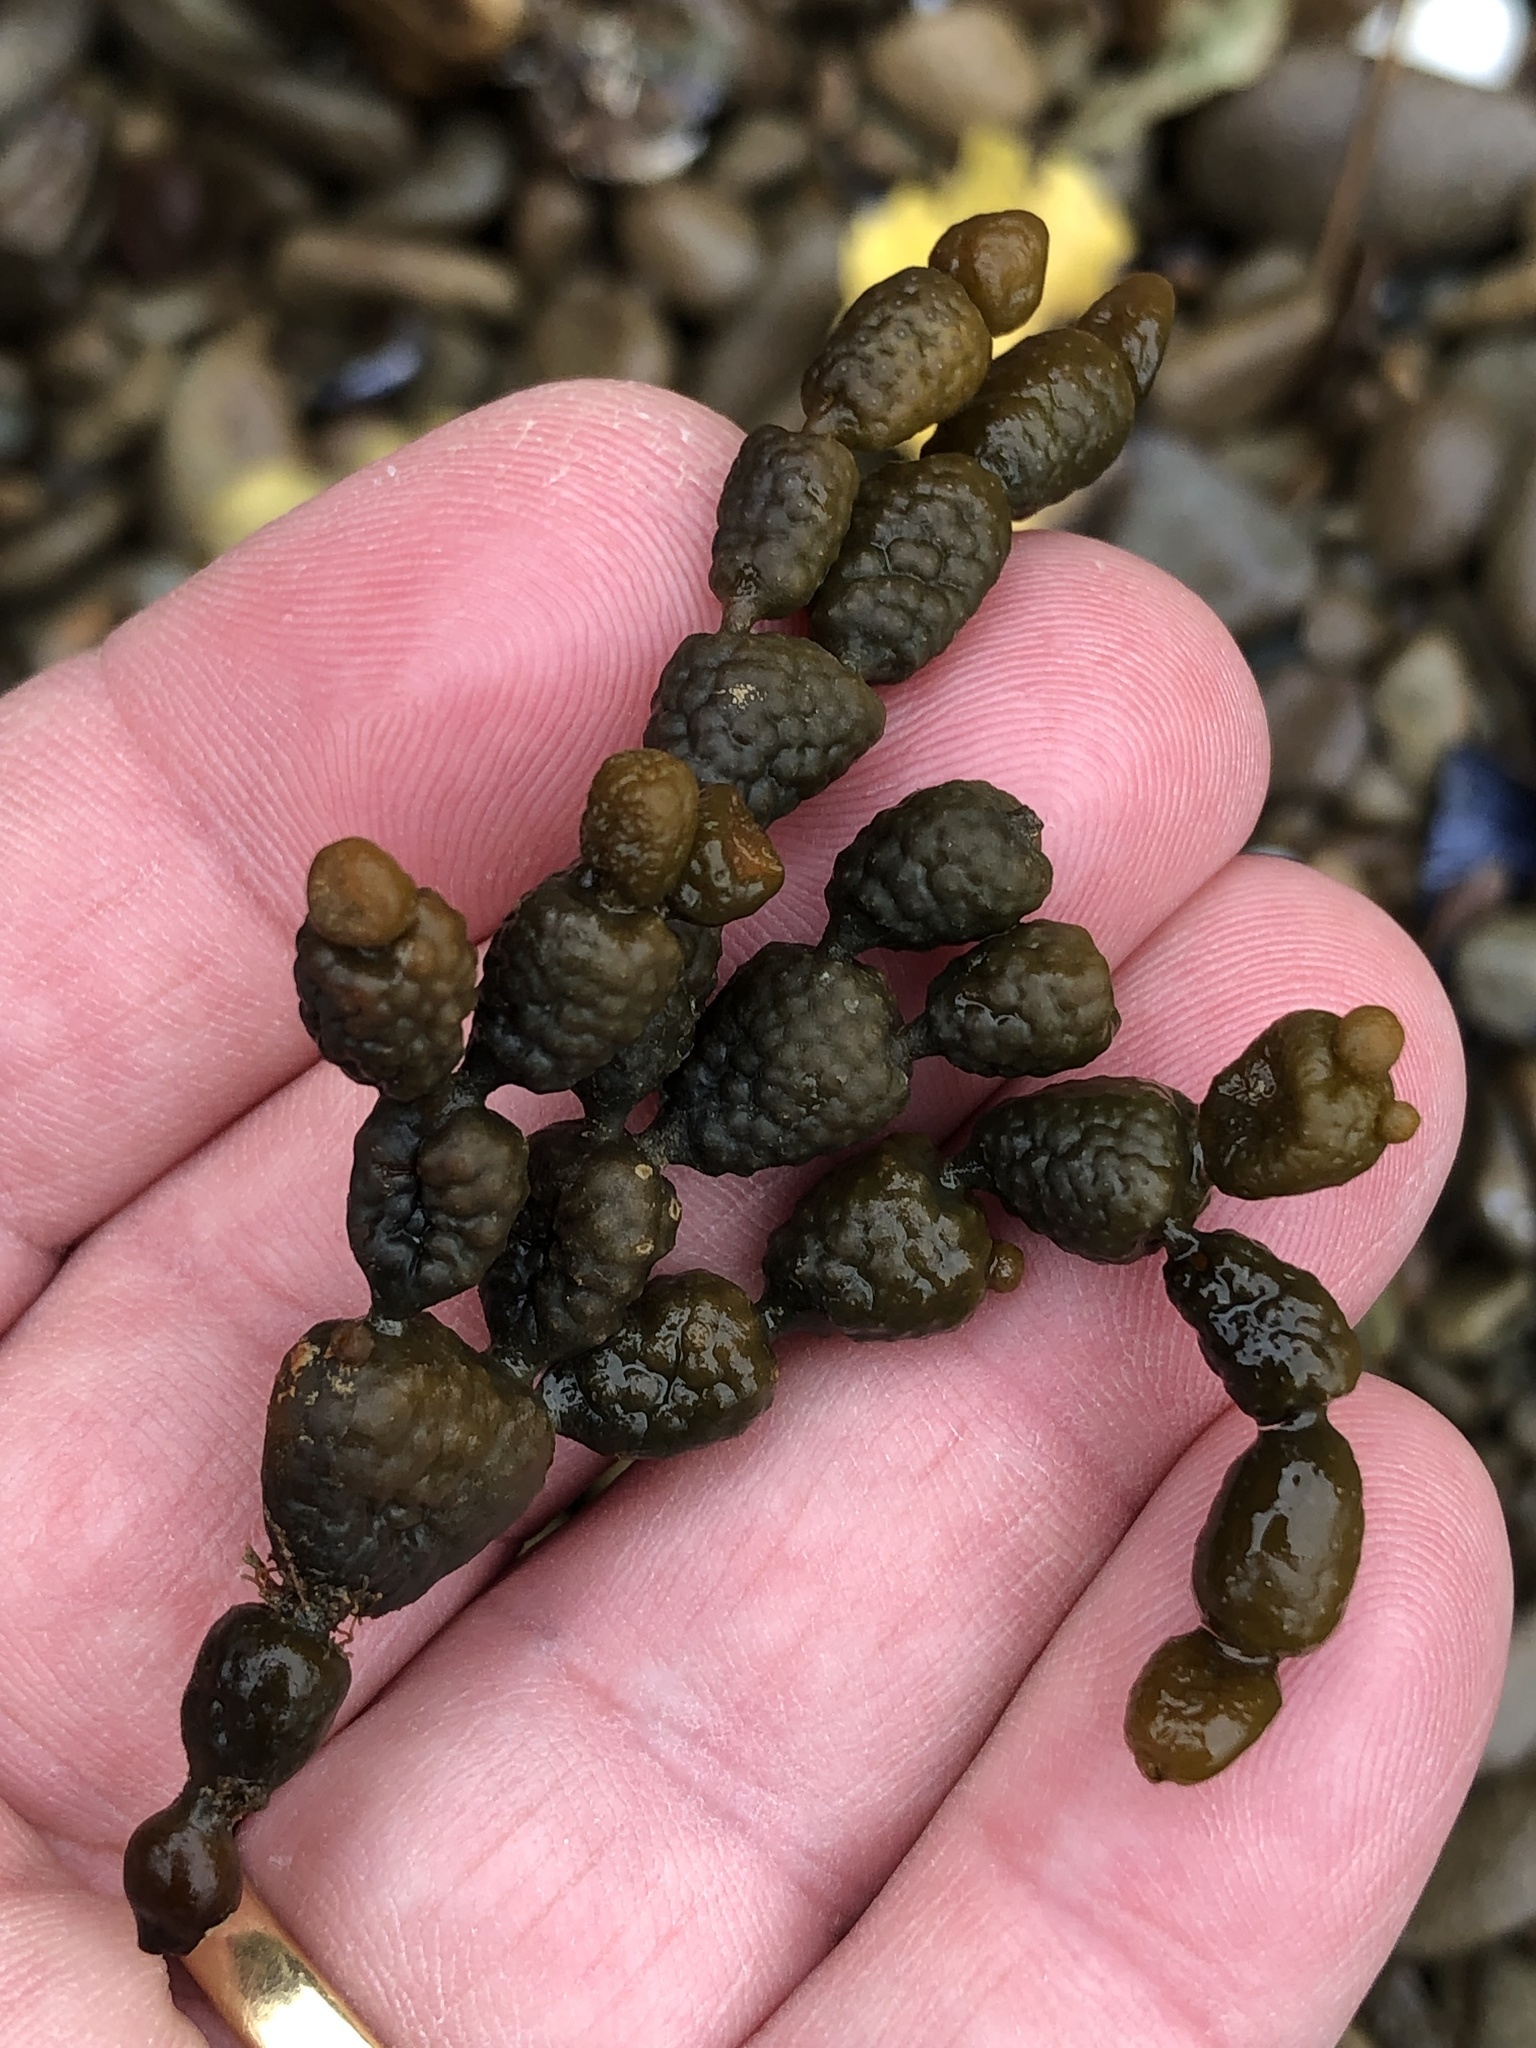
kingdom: Chromista
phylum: Ochrophyta
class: Phaeophyceae
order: Fucales
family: Hormosiraceae
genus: Hormosira
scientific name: Hormosira banksii
